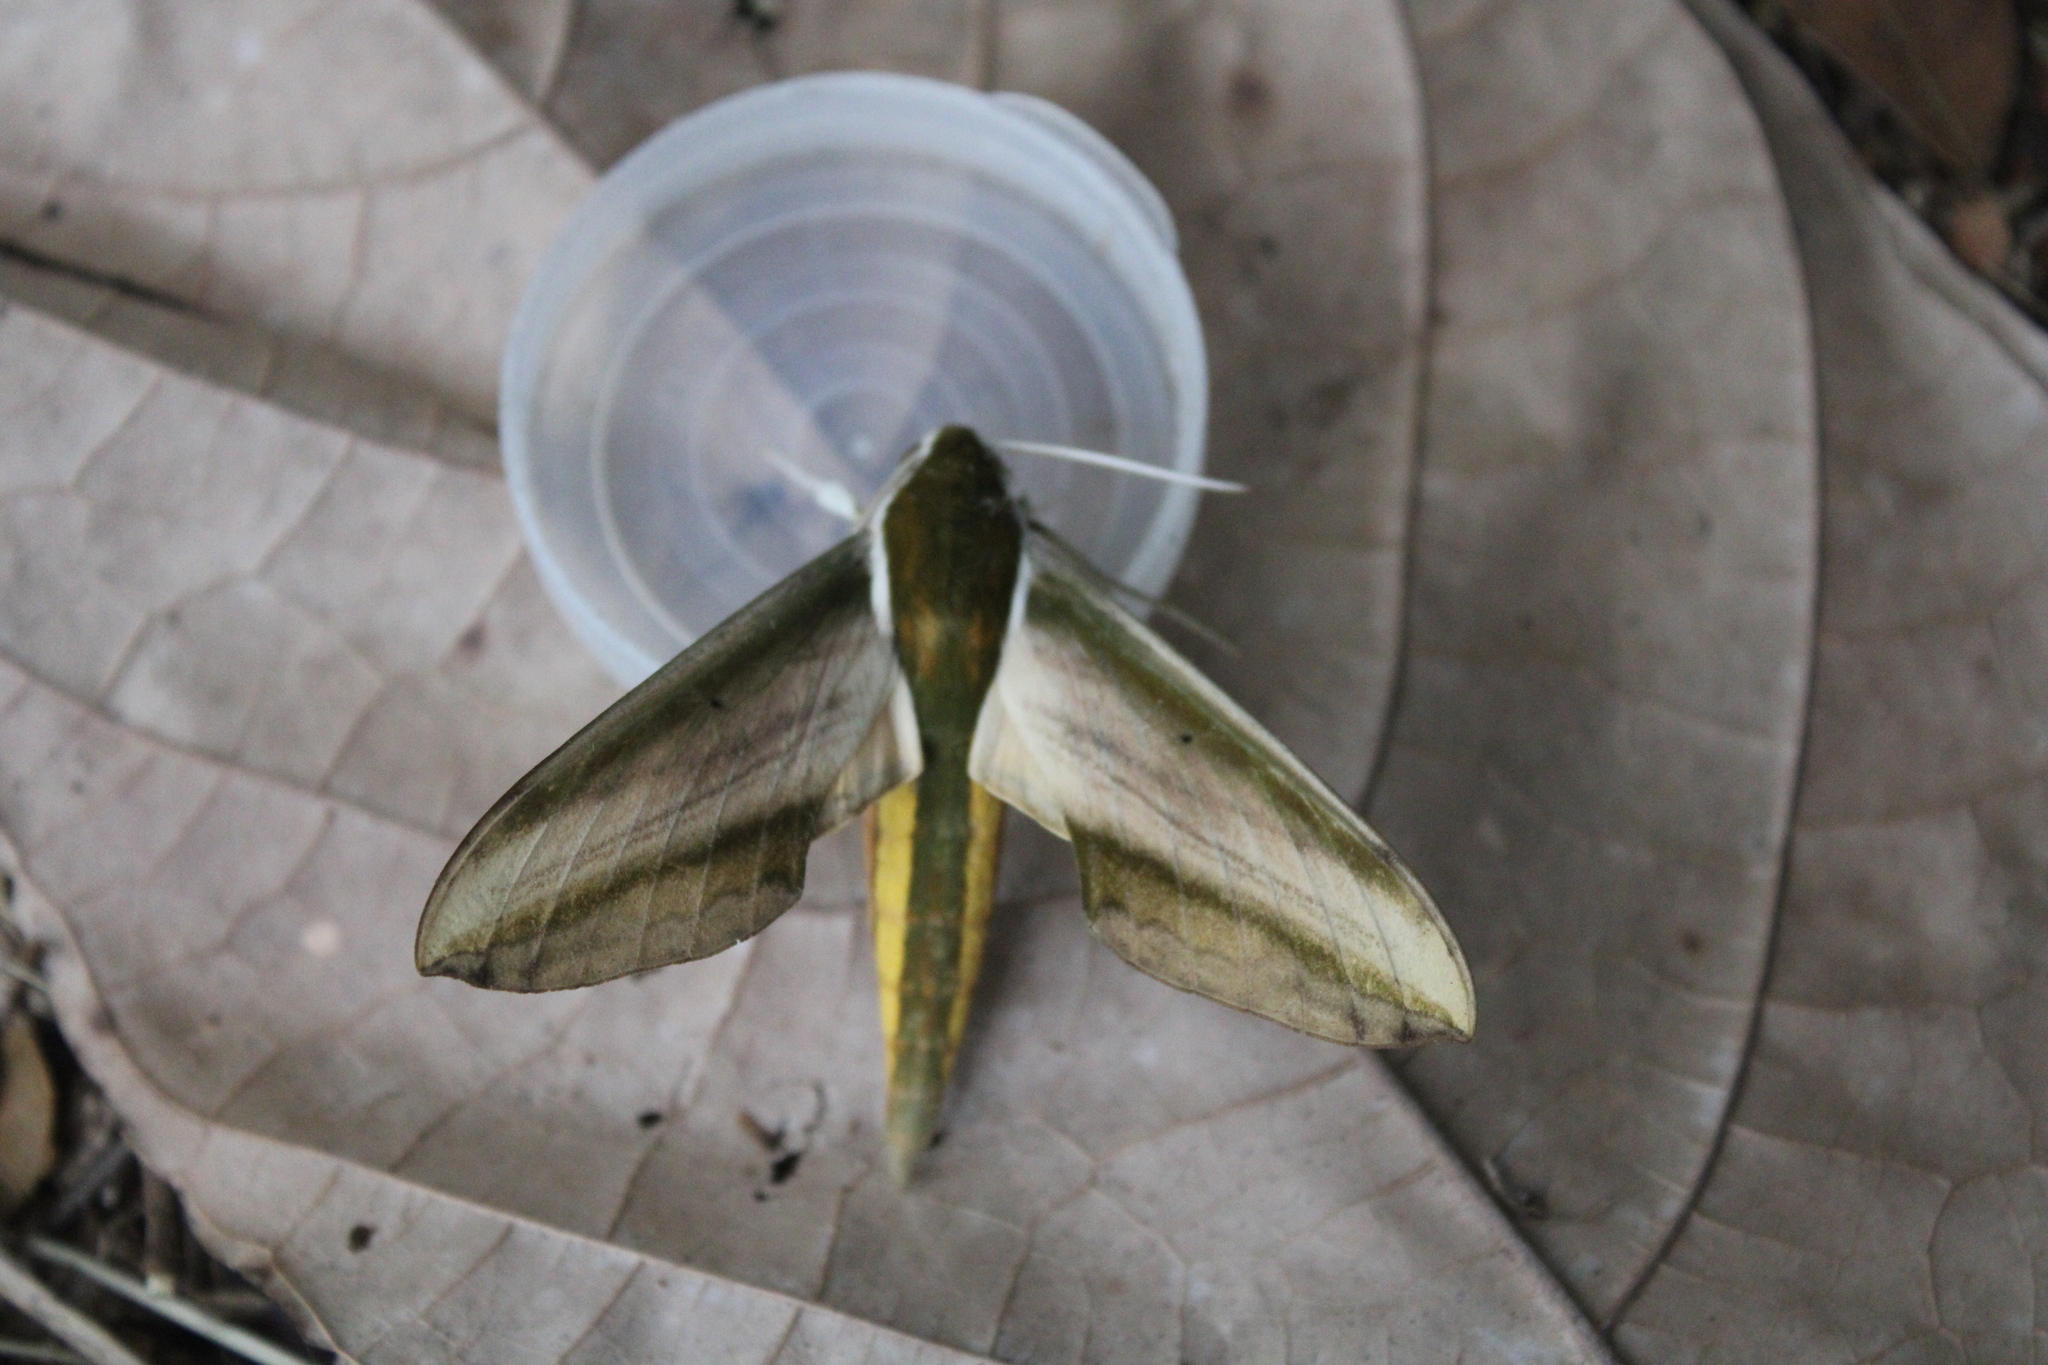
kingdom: Animalia
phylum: Arthropoda
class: Insecta
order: Lepidoptera
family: Sphingidae
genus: Theretra
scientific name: Theretra nessus
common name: Yam hawk moth
